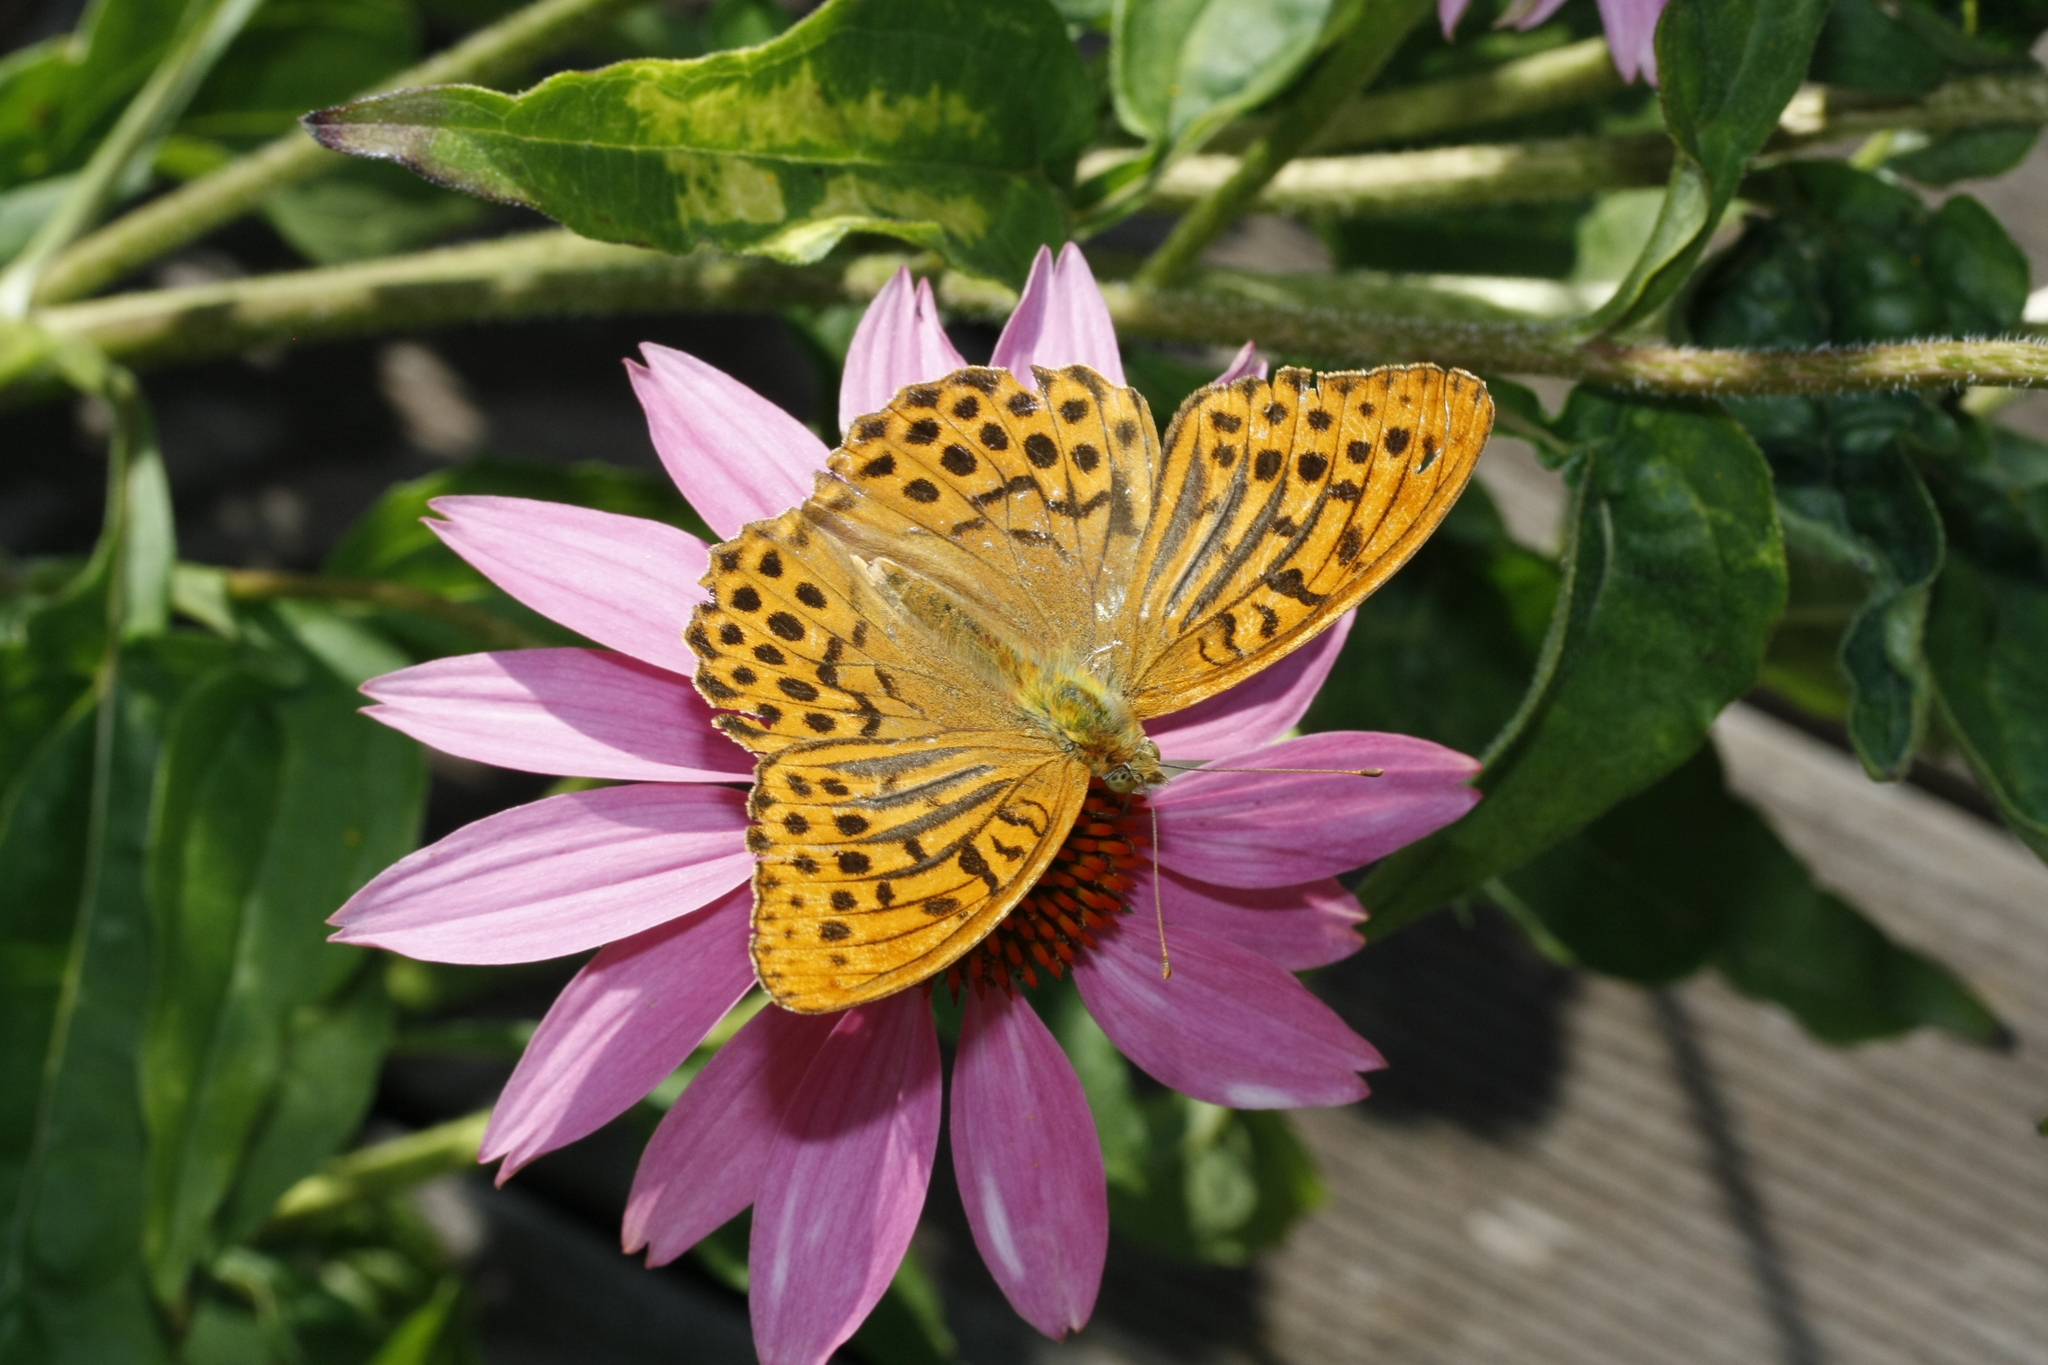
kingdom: Animalia
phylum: Arthropoda
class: Insecta
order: Lepidoptera
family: Nymphalidae
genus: Argynnis
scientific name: Argynnis paphia
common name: Silver-washed fritillary
